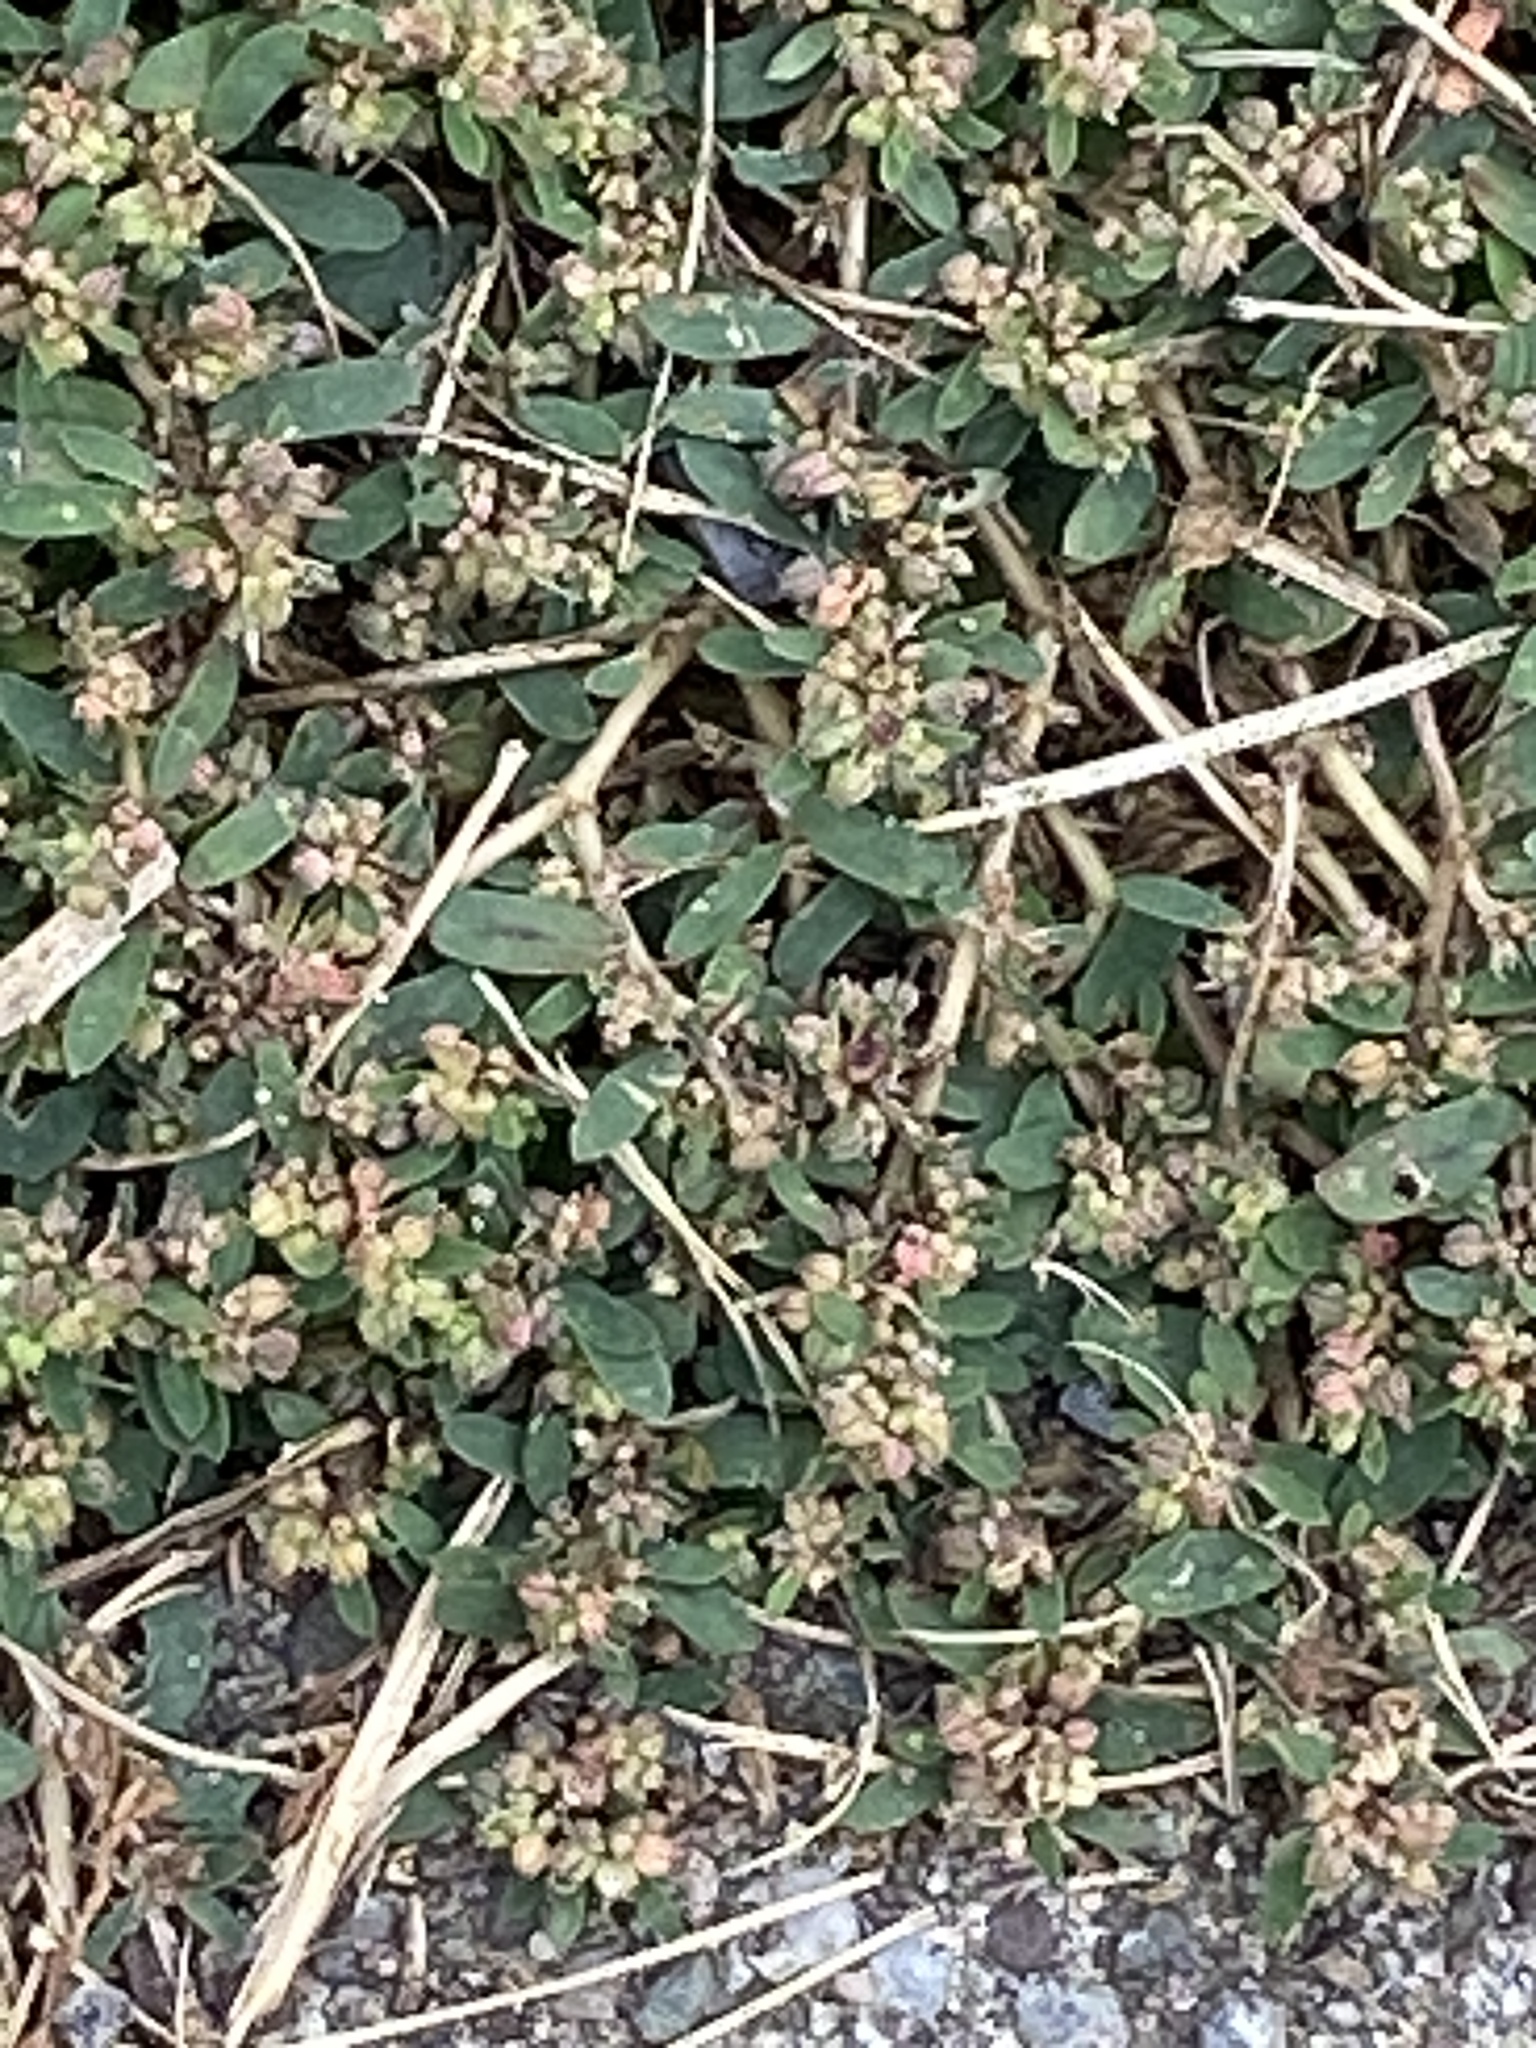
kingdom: Plantae
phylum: Tracheophyta
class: Magnoliopsida
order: Malpighiales
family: Euphorbiaceae
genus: Euphorbia
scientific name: Euphorbia maculata
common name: Spotted spurge
